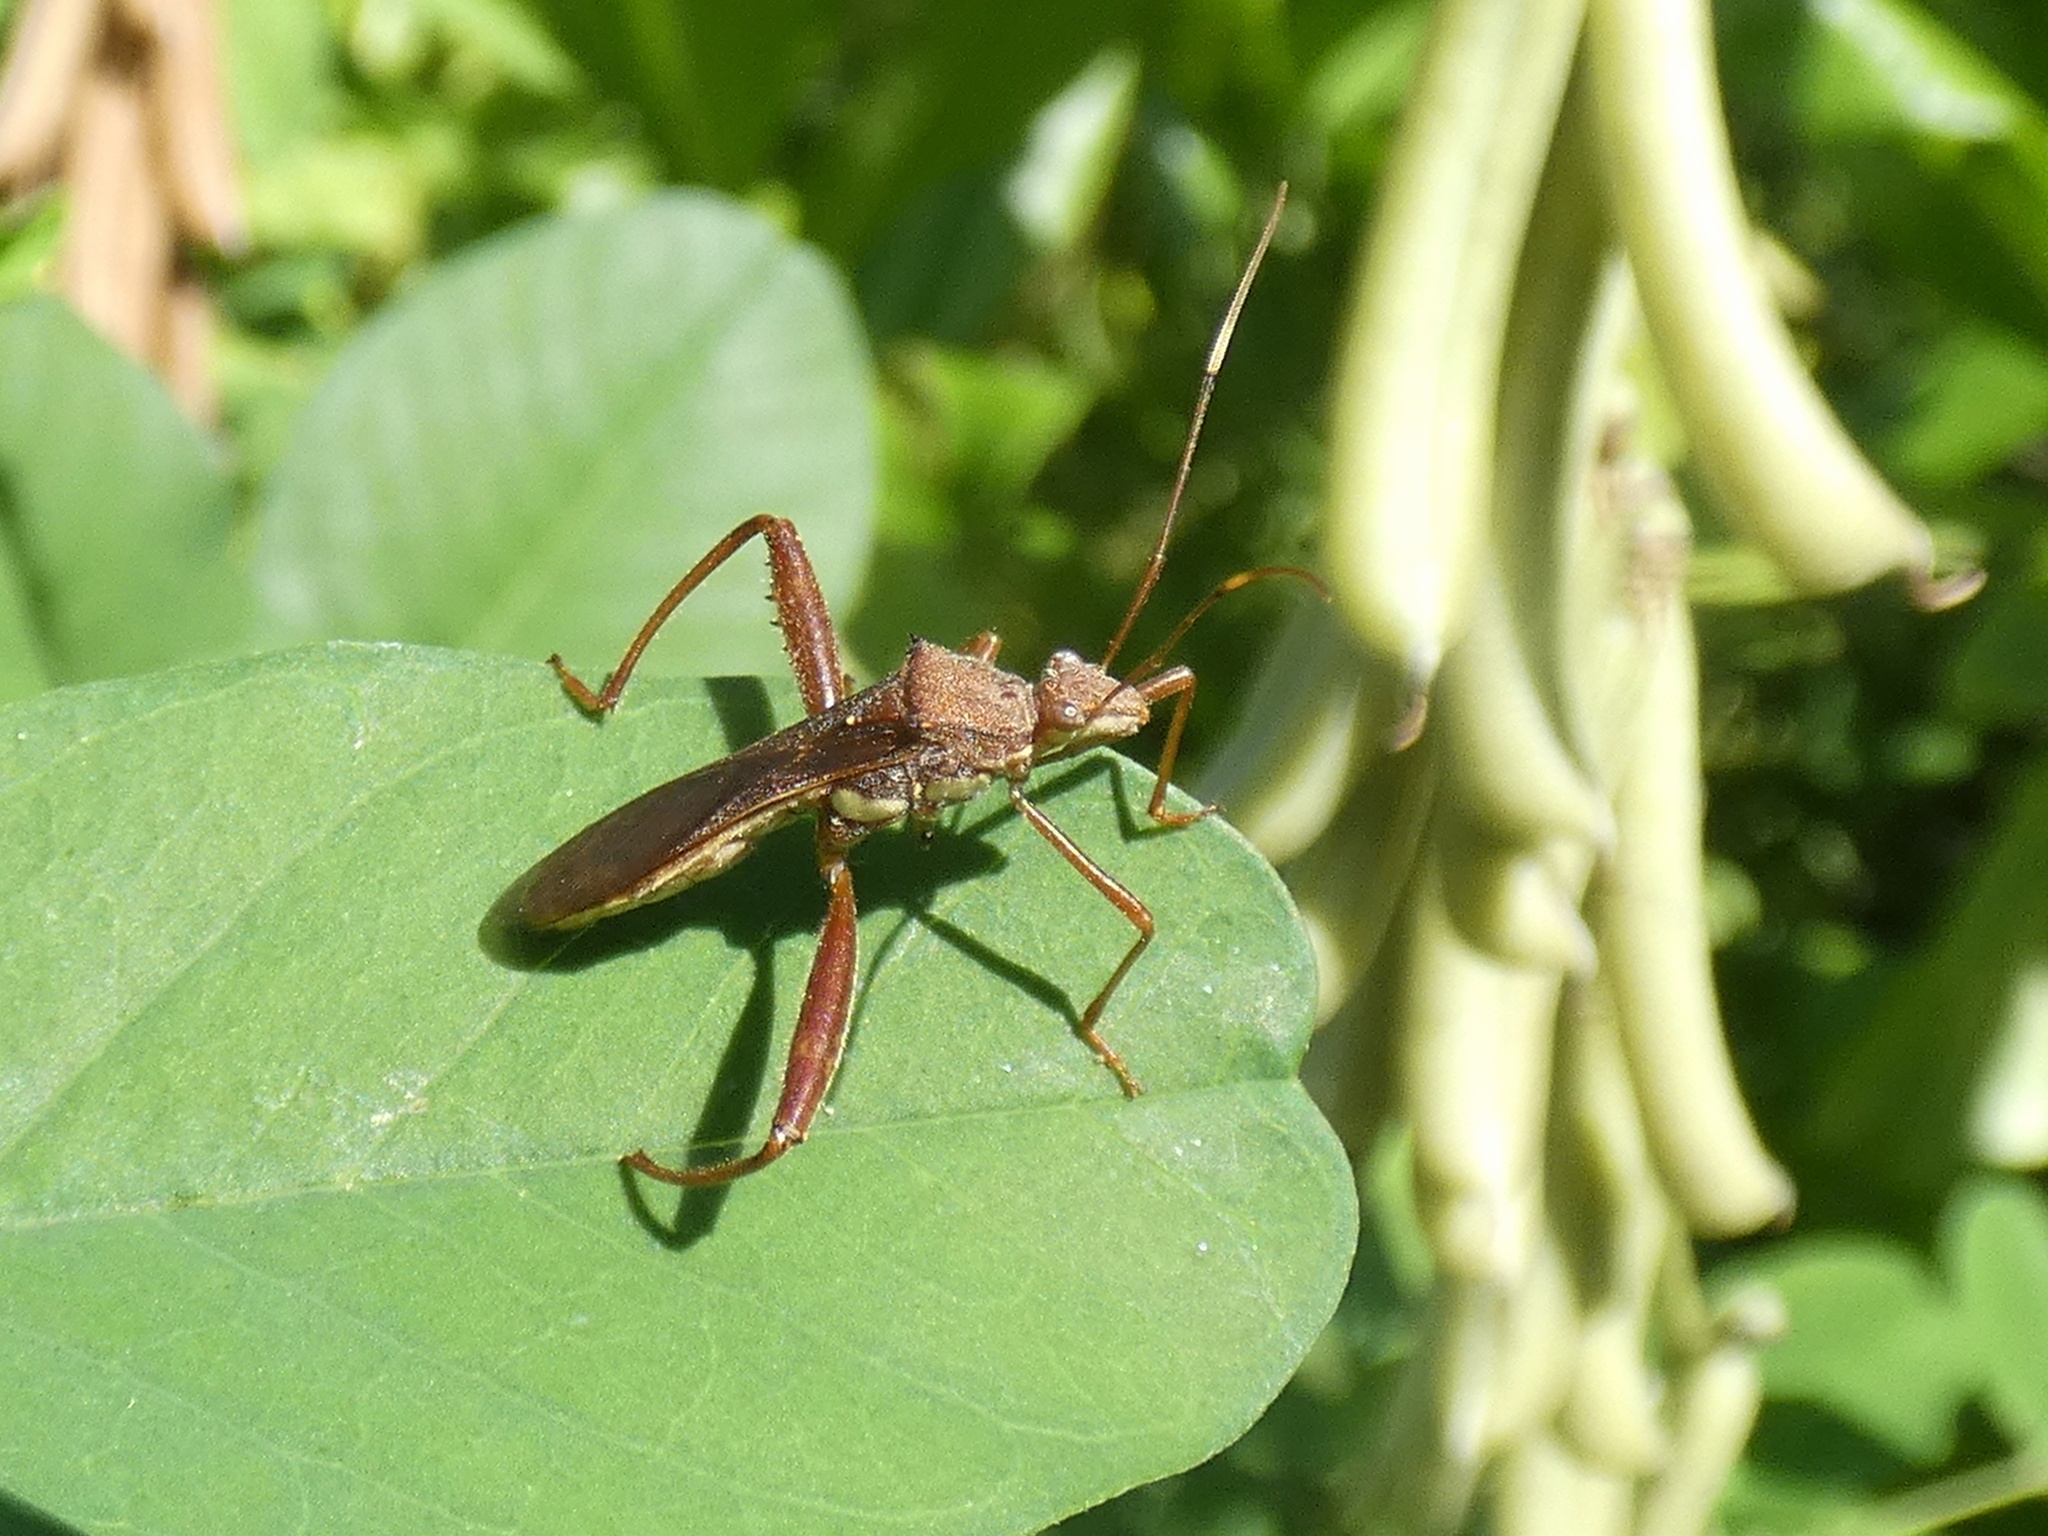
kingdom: Animalia
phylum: Arthropoda
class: Insecta
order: Hemiptera
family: Alydidae
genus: Riptortus
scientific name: Riptortus abdominalis
